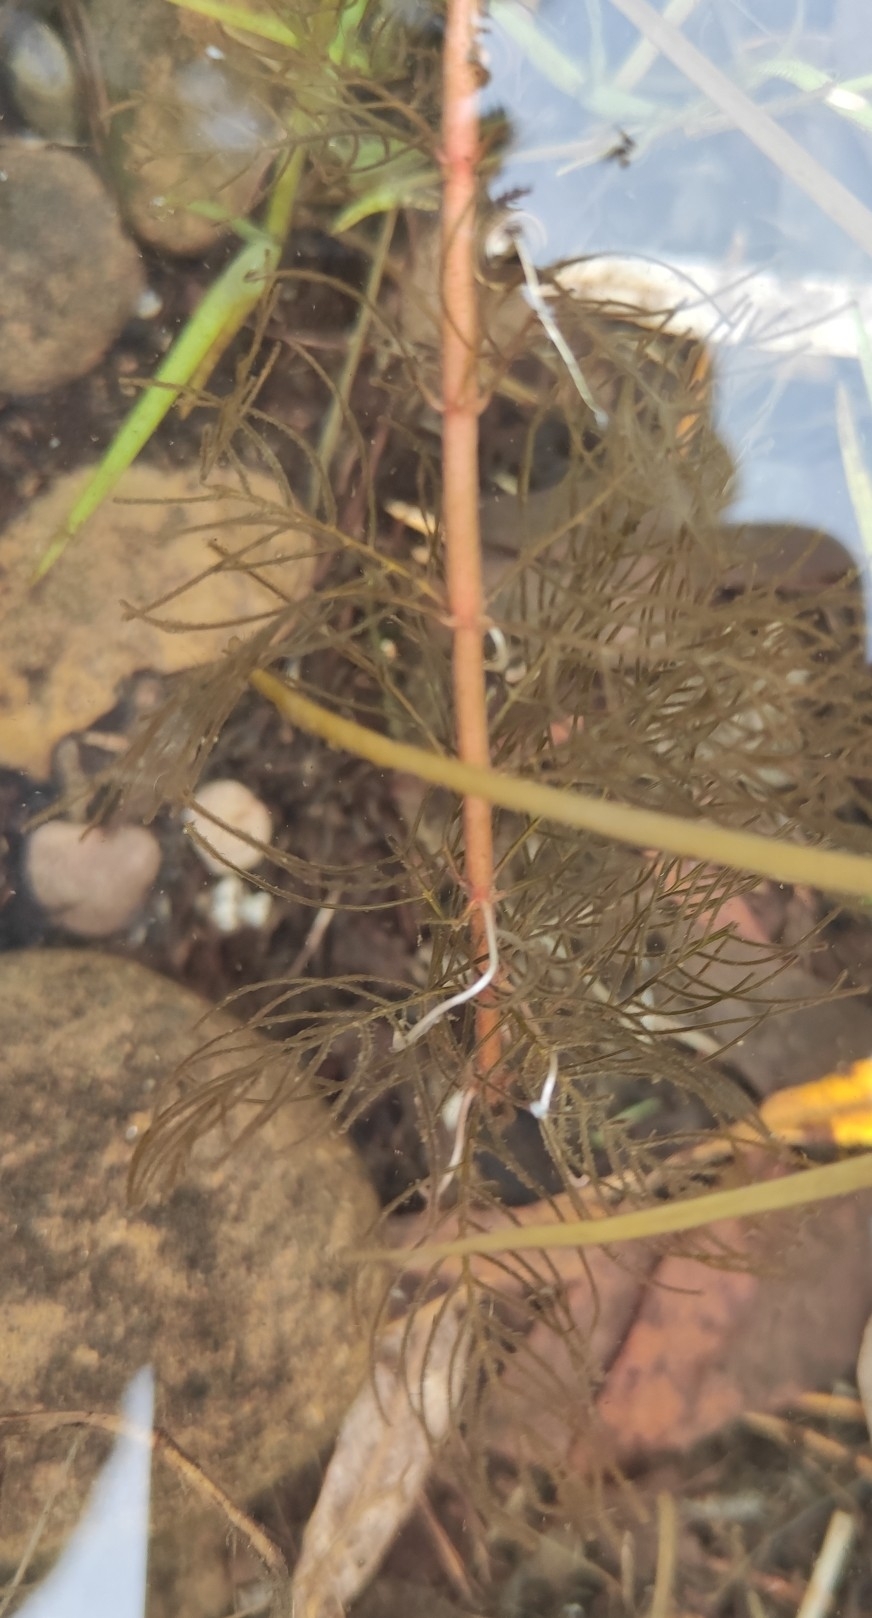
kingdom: Plantae
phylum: Tracheophyta
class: Magnoliopsida
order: Saxifragales
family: Haloragaceae
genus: Myriophyllum
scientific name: Myriophyllum sibiricum
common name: Siberian water-milfoil
